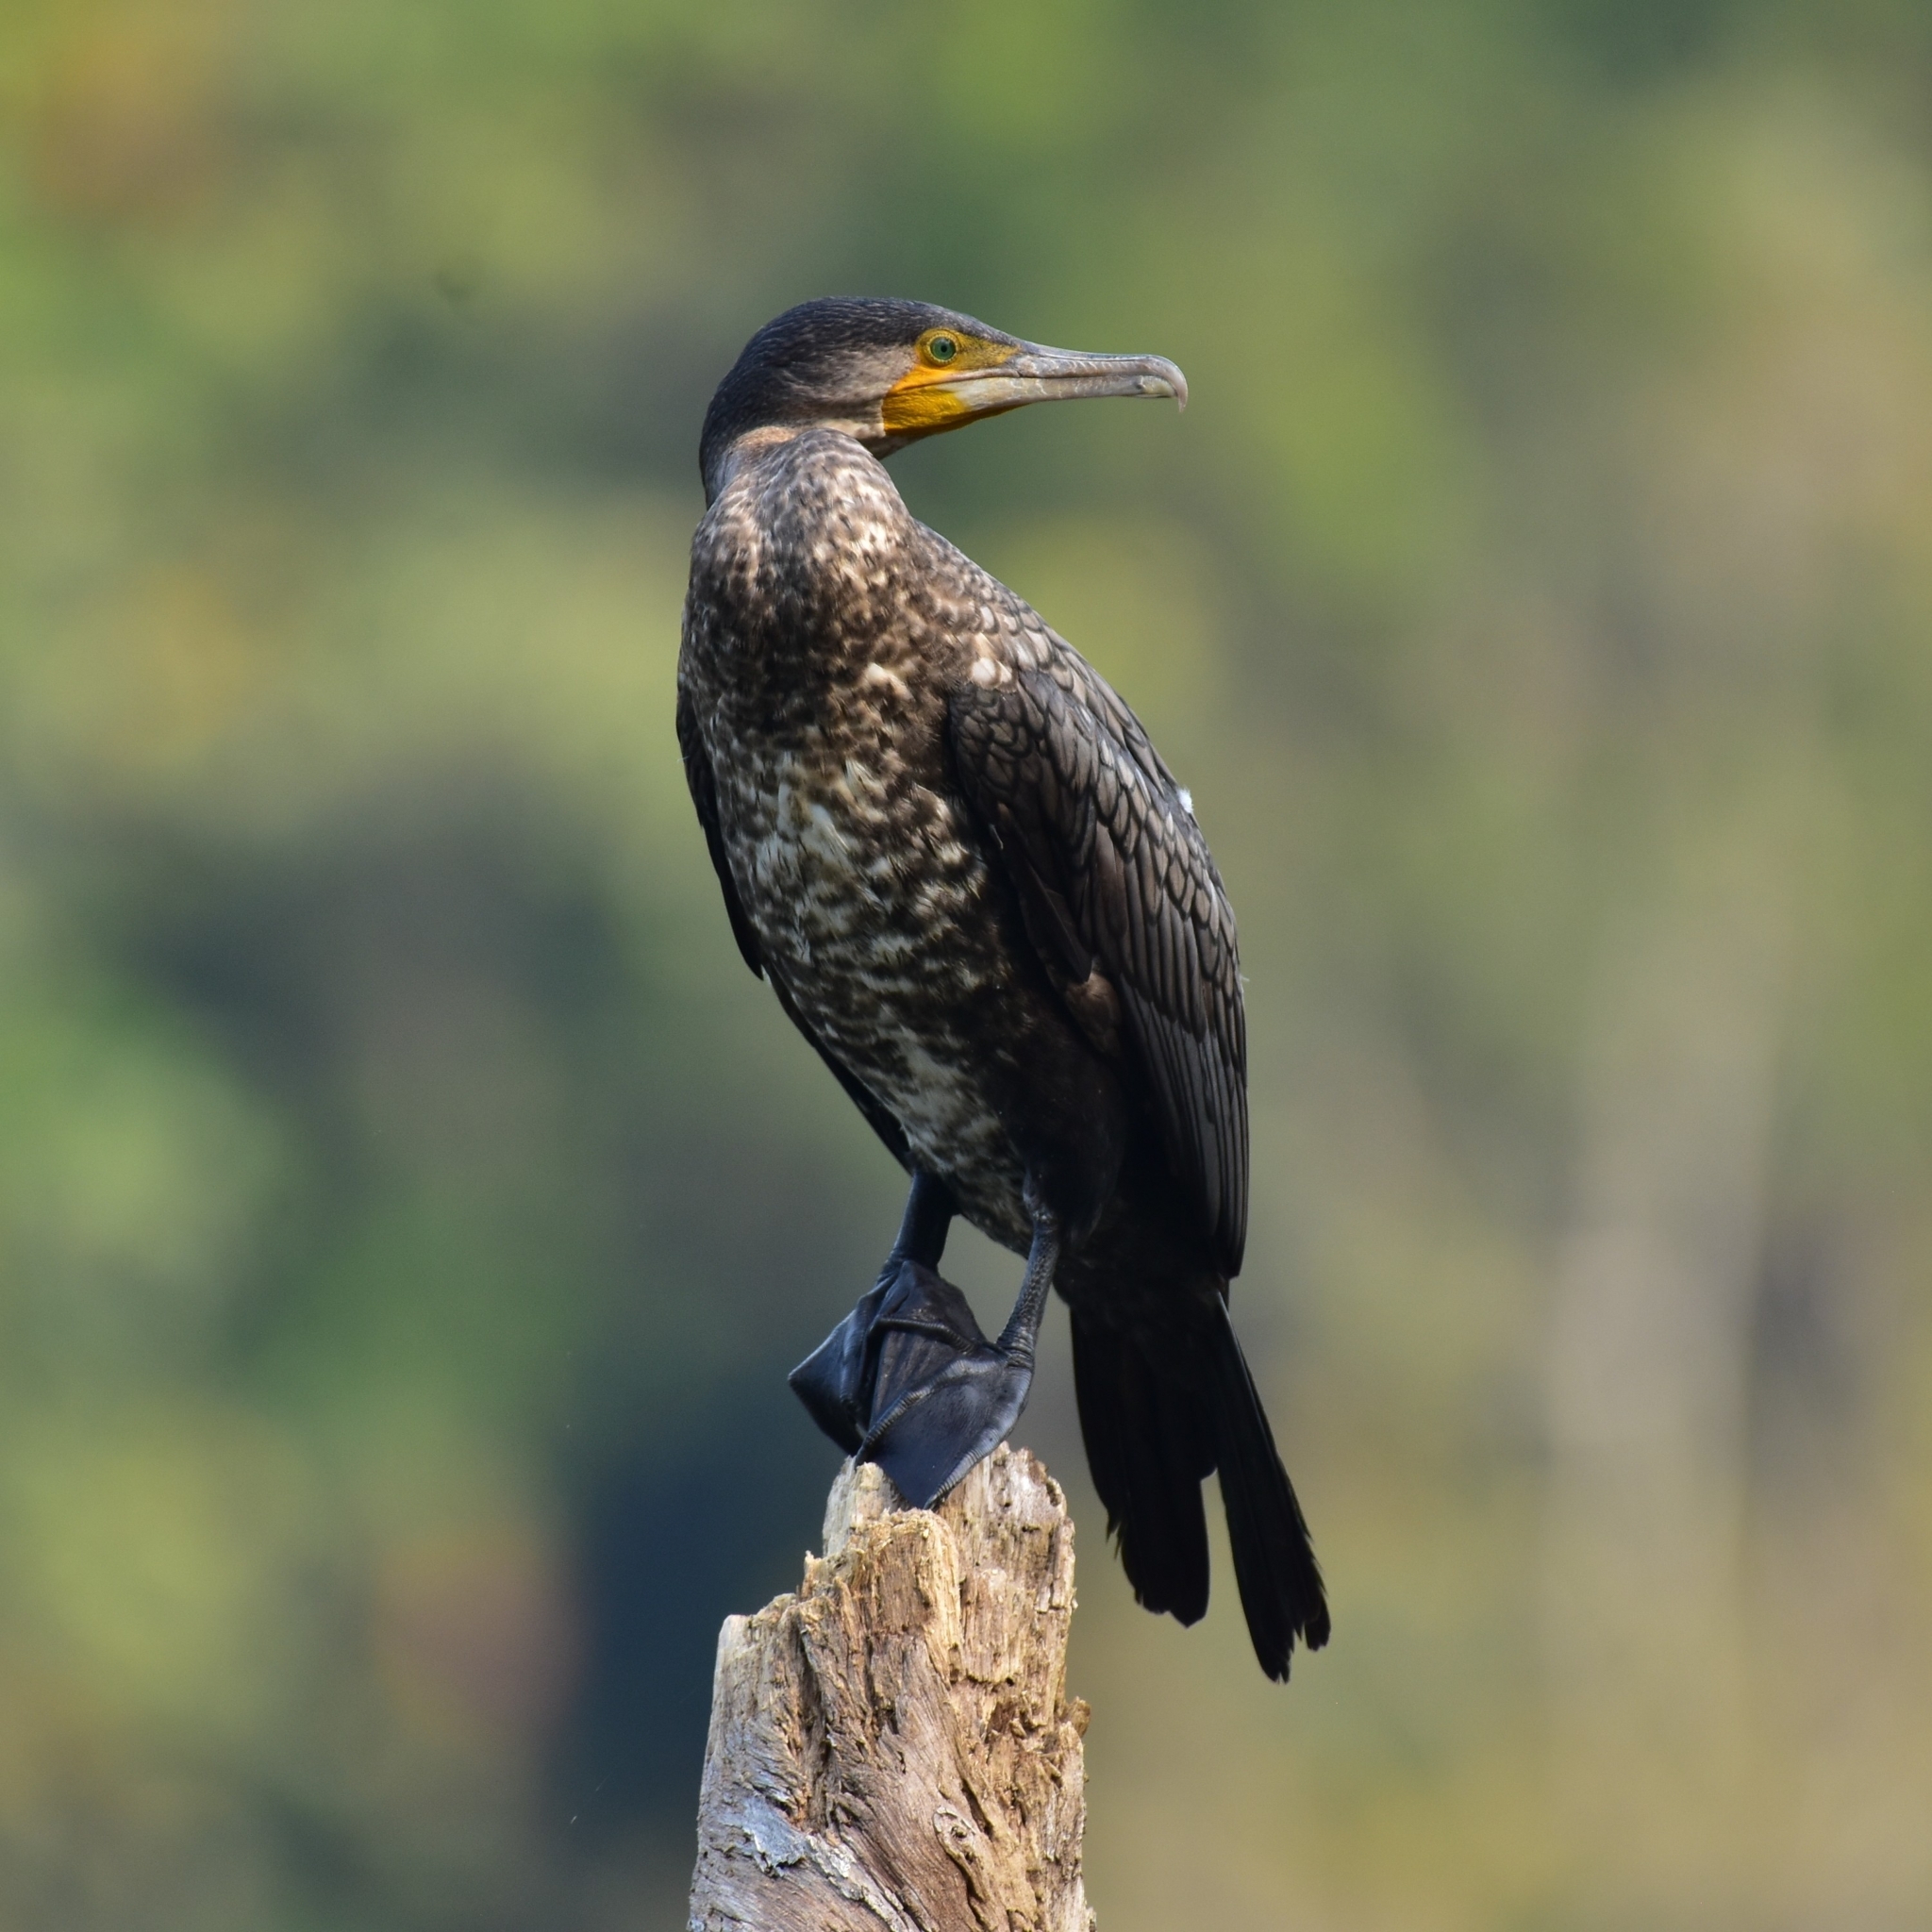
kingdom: Animalia
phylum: Chordata
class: Aves
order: Suliformes
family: Phalacrocoracidae
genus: Phalacrocorax
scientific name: Phalacrocorax carbo
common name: Great cormorant
